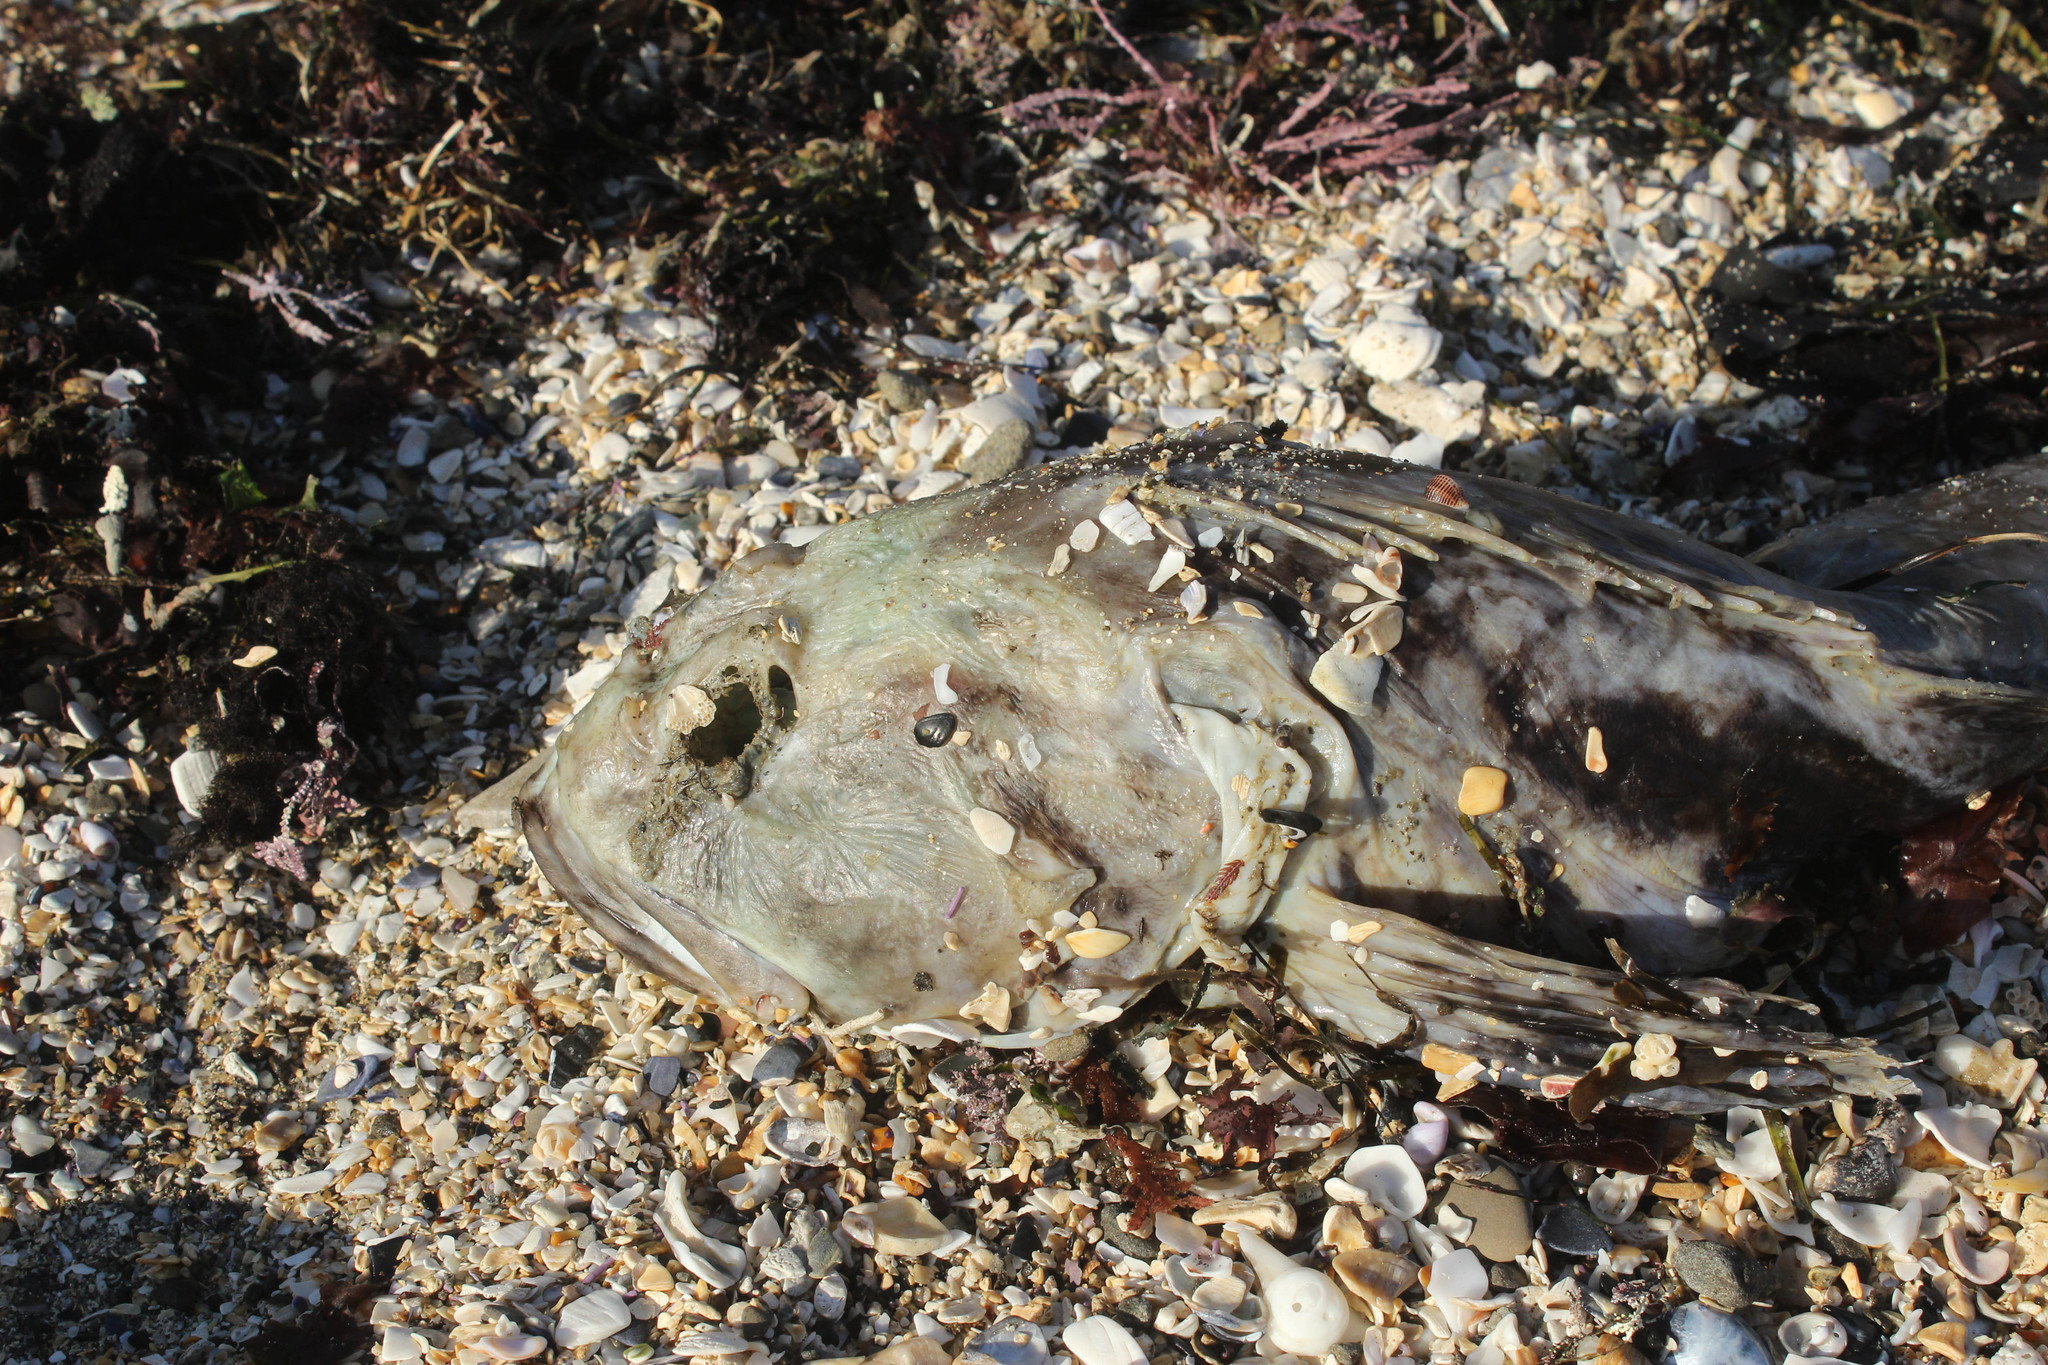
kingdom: Animalia
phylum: Chordata
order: Scorpaeniformes
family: Cottidae
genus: Scorpaenichthys
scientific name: Scorpaenichthys marmoratus
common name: Cabezon
